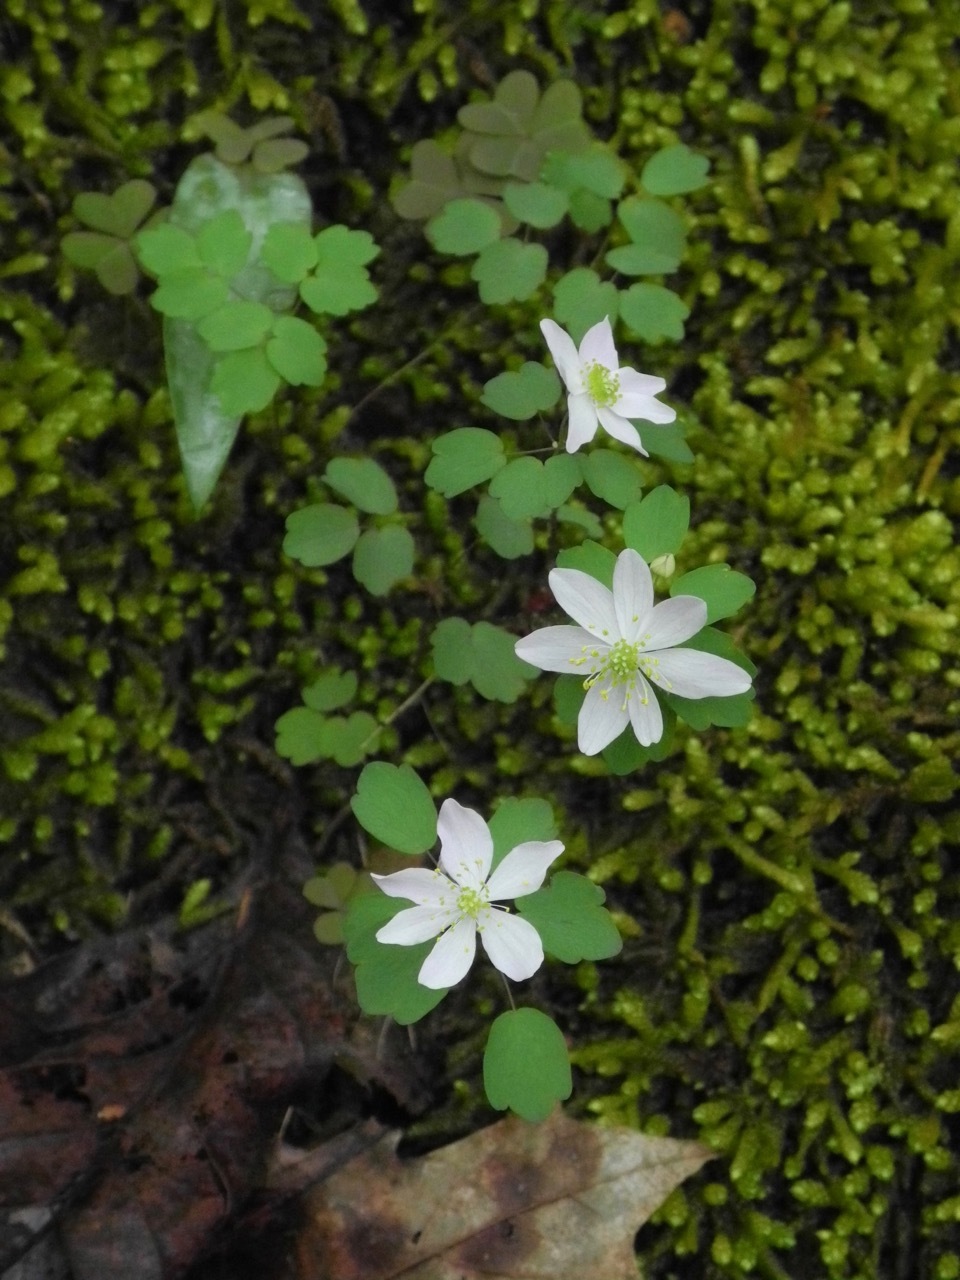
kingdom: Plantae
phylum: Tracheophyta
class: Magnoliopsida
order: Ranunculales
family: Ranunculaceae
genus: Thalictrum
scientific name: Thalictrum thalictroides
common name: Rue-anemone
